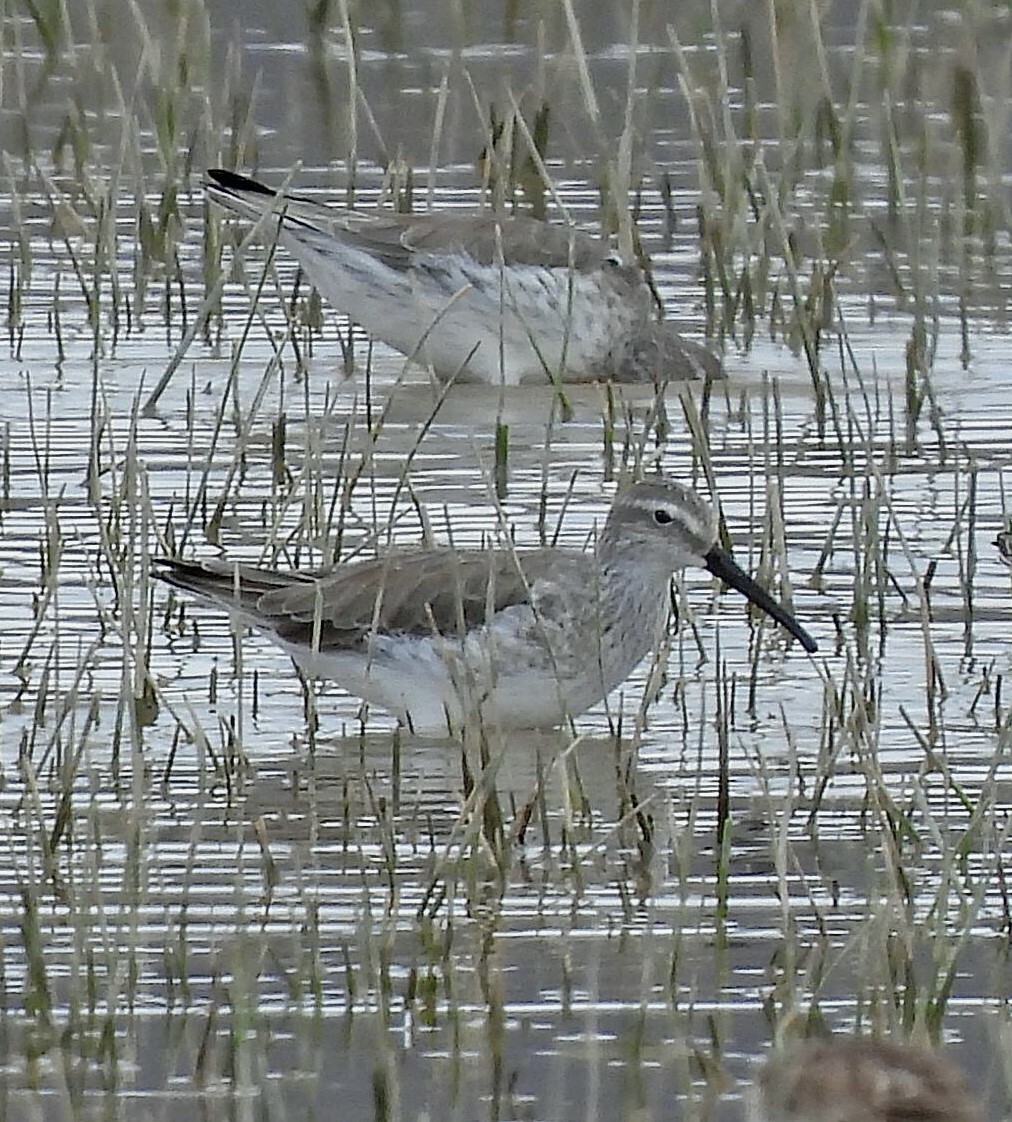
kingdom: Animalia
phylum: Chordata
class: Aves
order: Charadriiformes
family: Scolopacidae
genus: Calidris
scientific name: Calidris himantopus
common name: Stilt sandpiper
